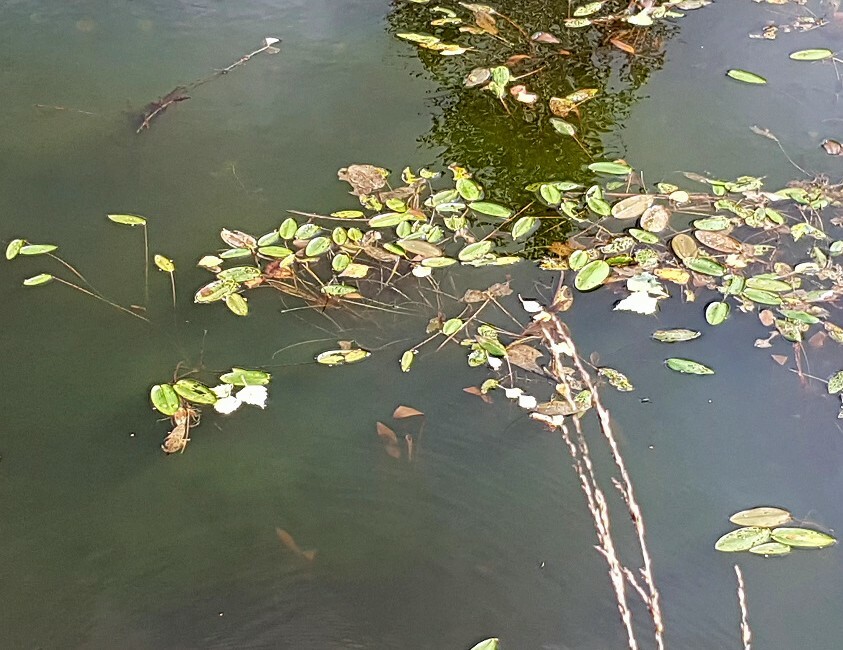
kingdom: Plantae
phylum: Tracheophyta
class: Liliopsida
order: Alismatales
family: Potamogetonaceae
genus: Potamogeton
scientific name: Potamogeton natans
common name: Broad-leaved pondweed
